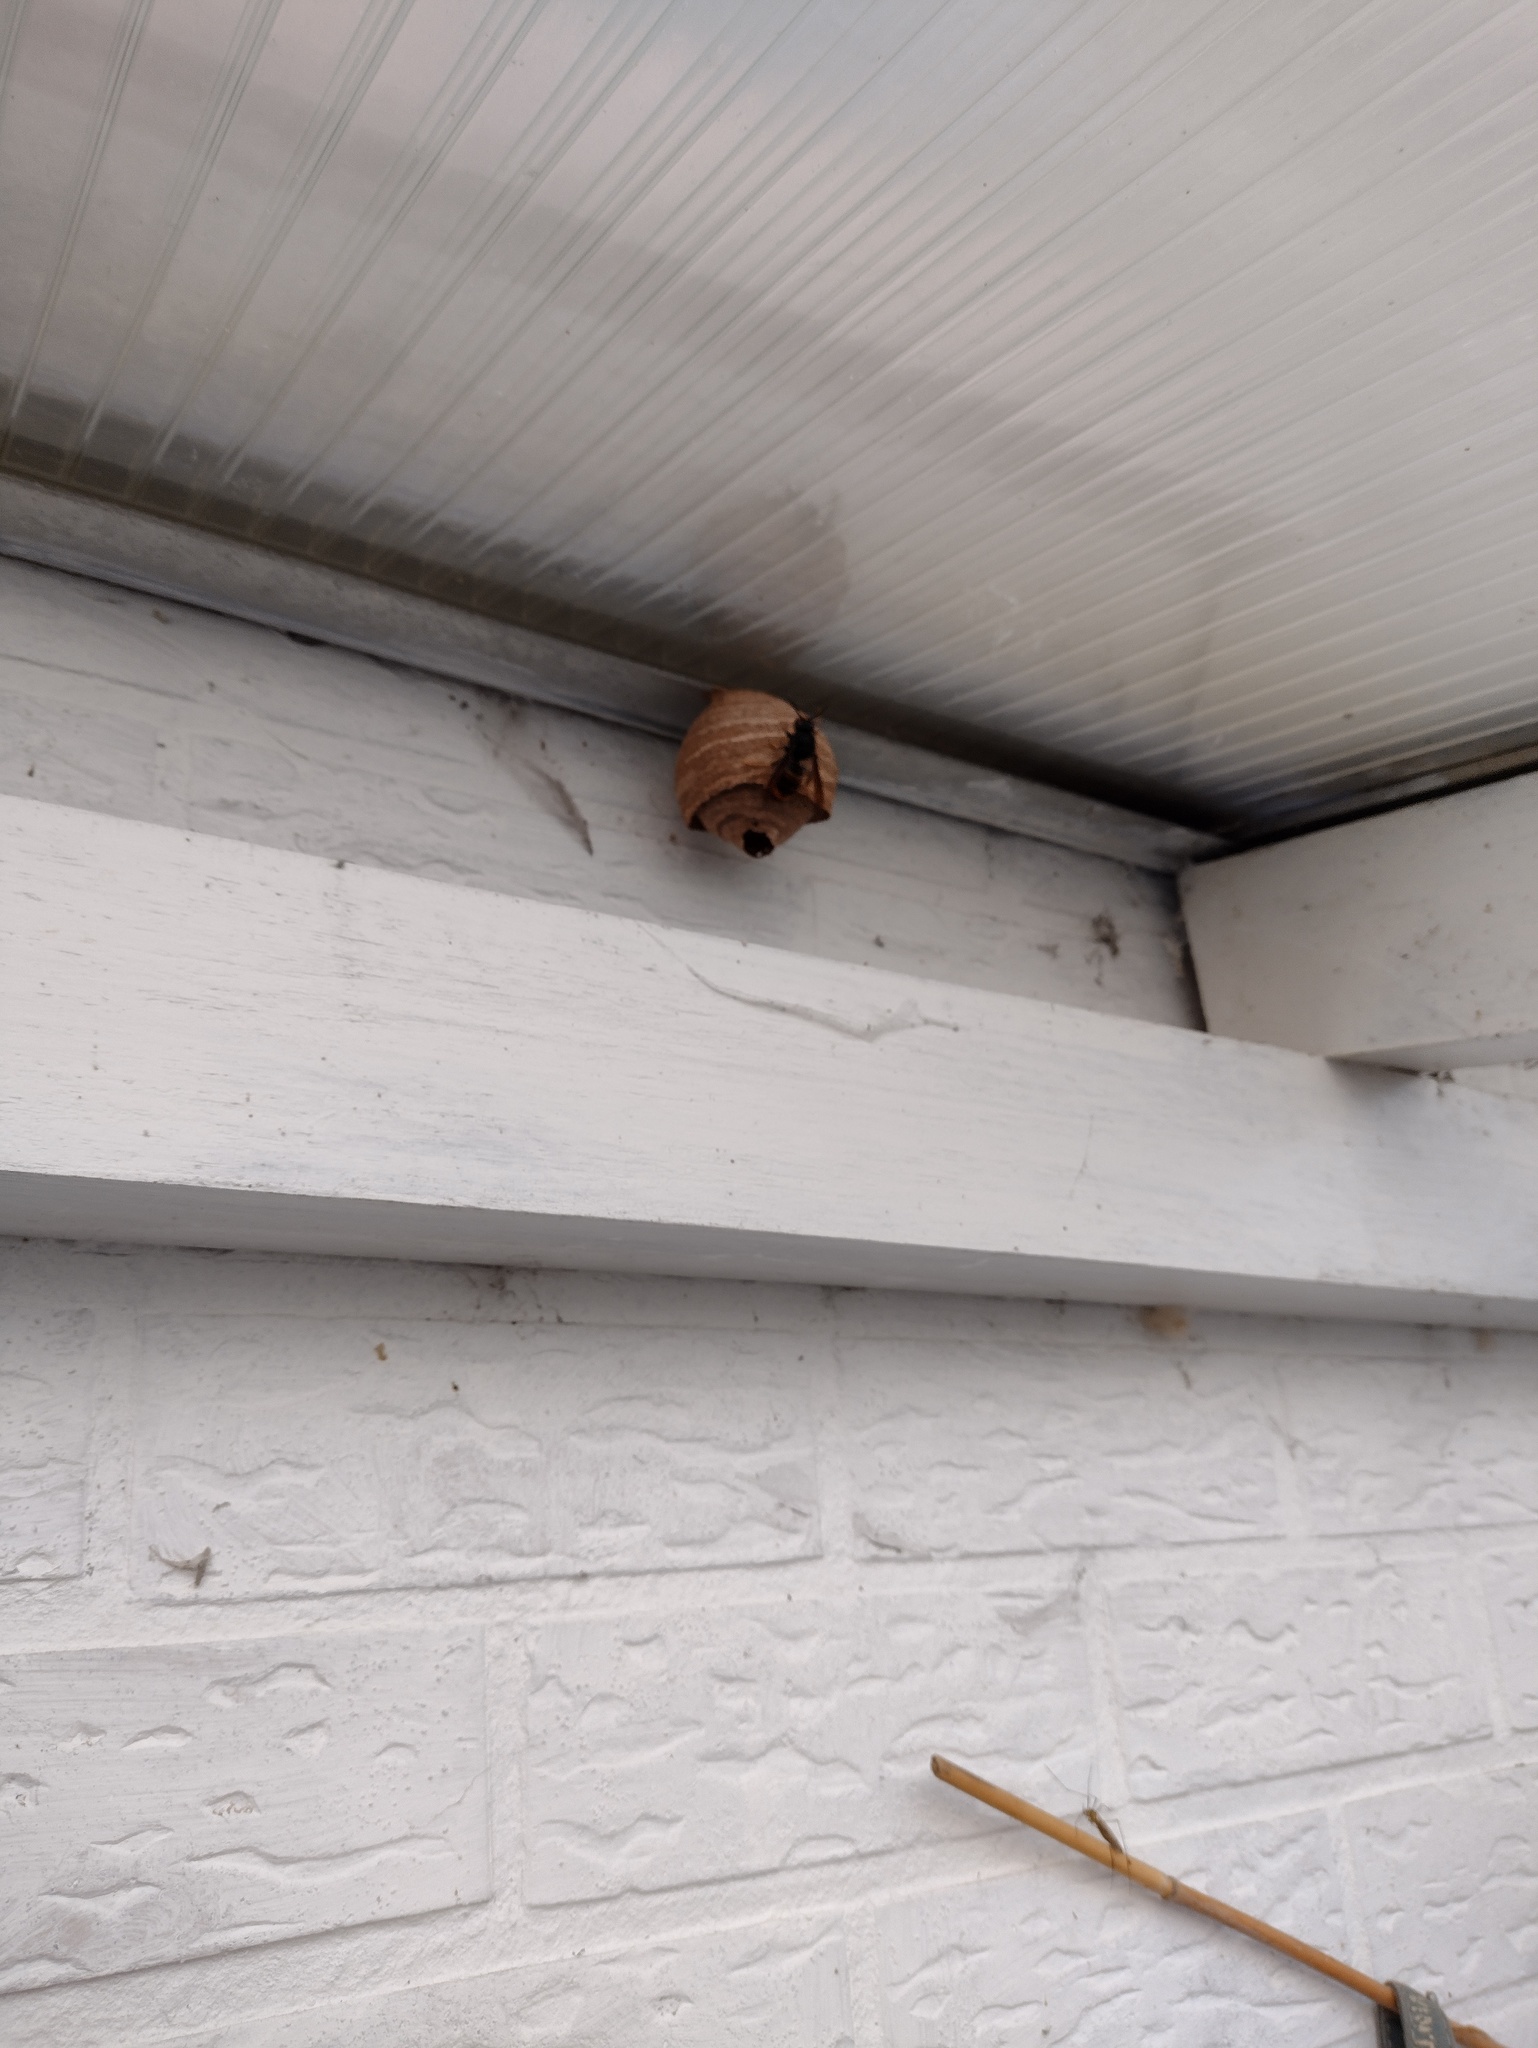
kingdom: Animalia
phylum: Arthropoda
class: Insecta
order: Hymenoptera
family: Vespidae
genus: Vespa
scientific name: Vespa velutina
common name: Asian hornet
